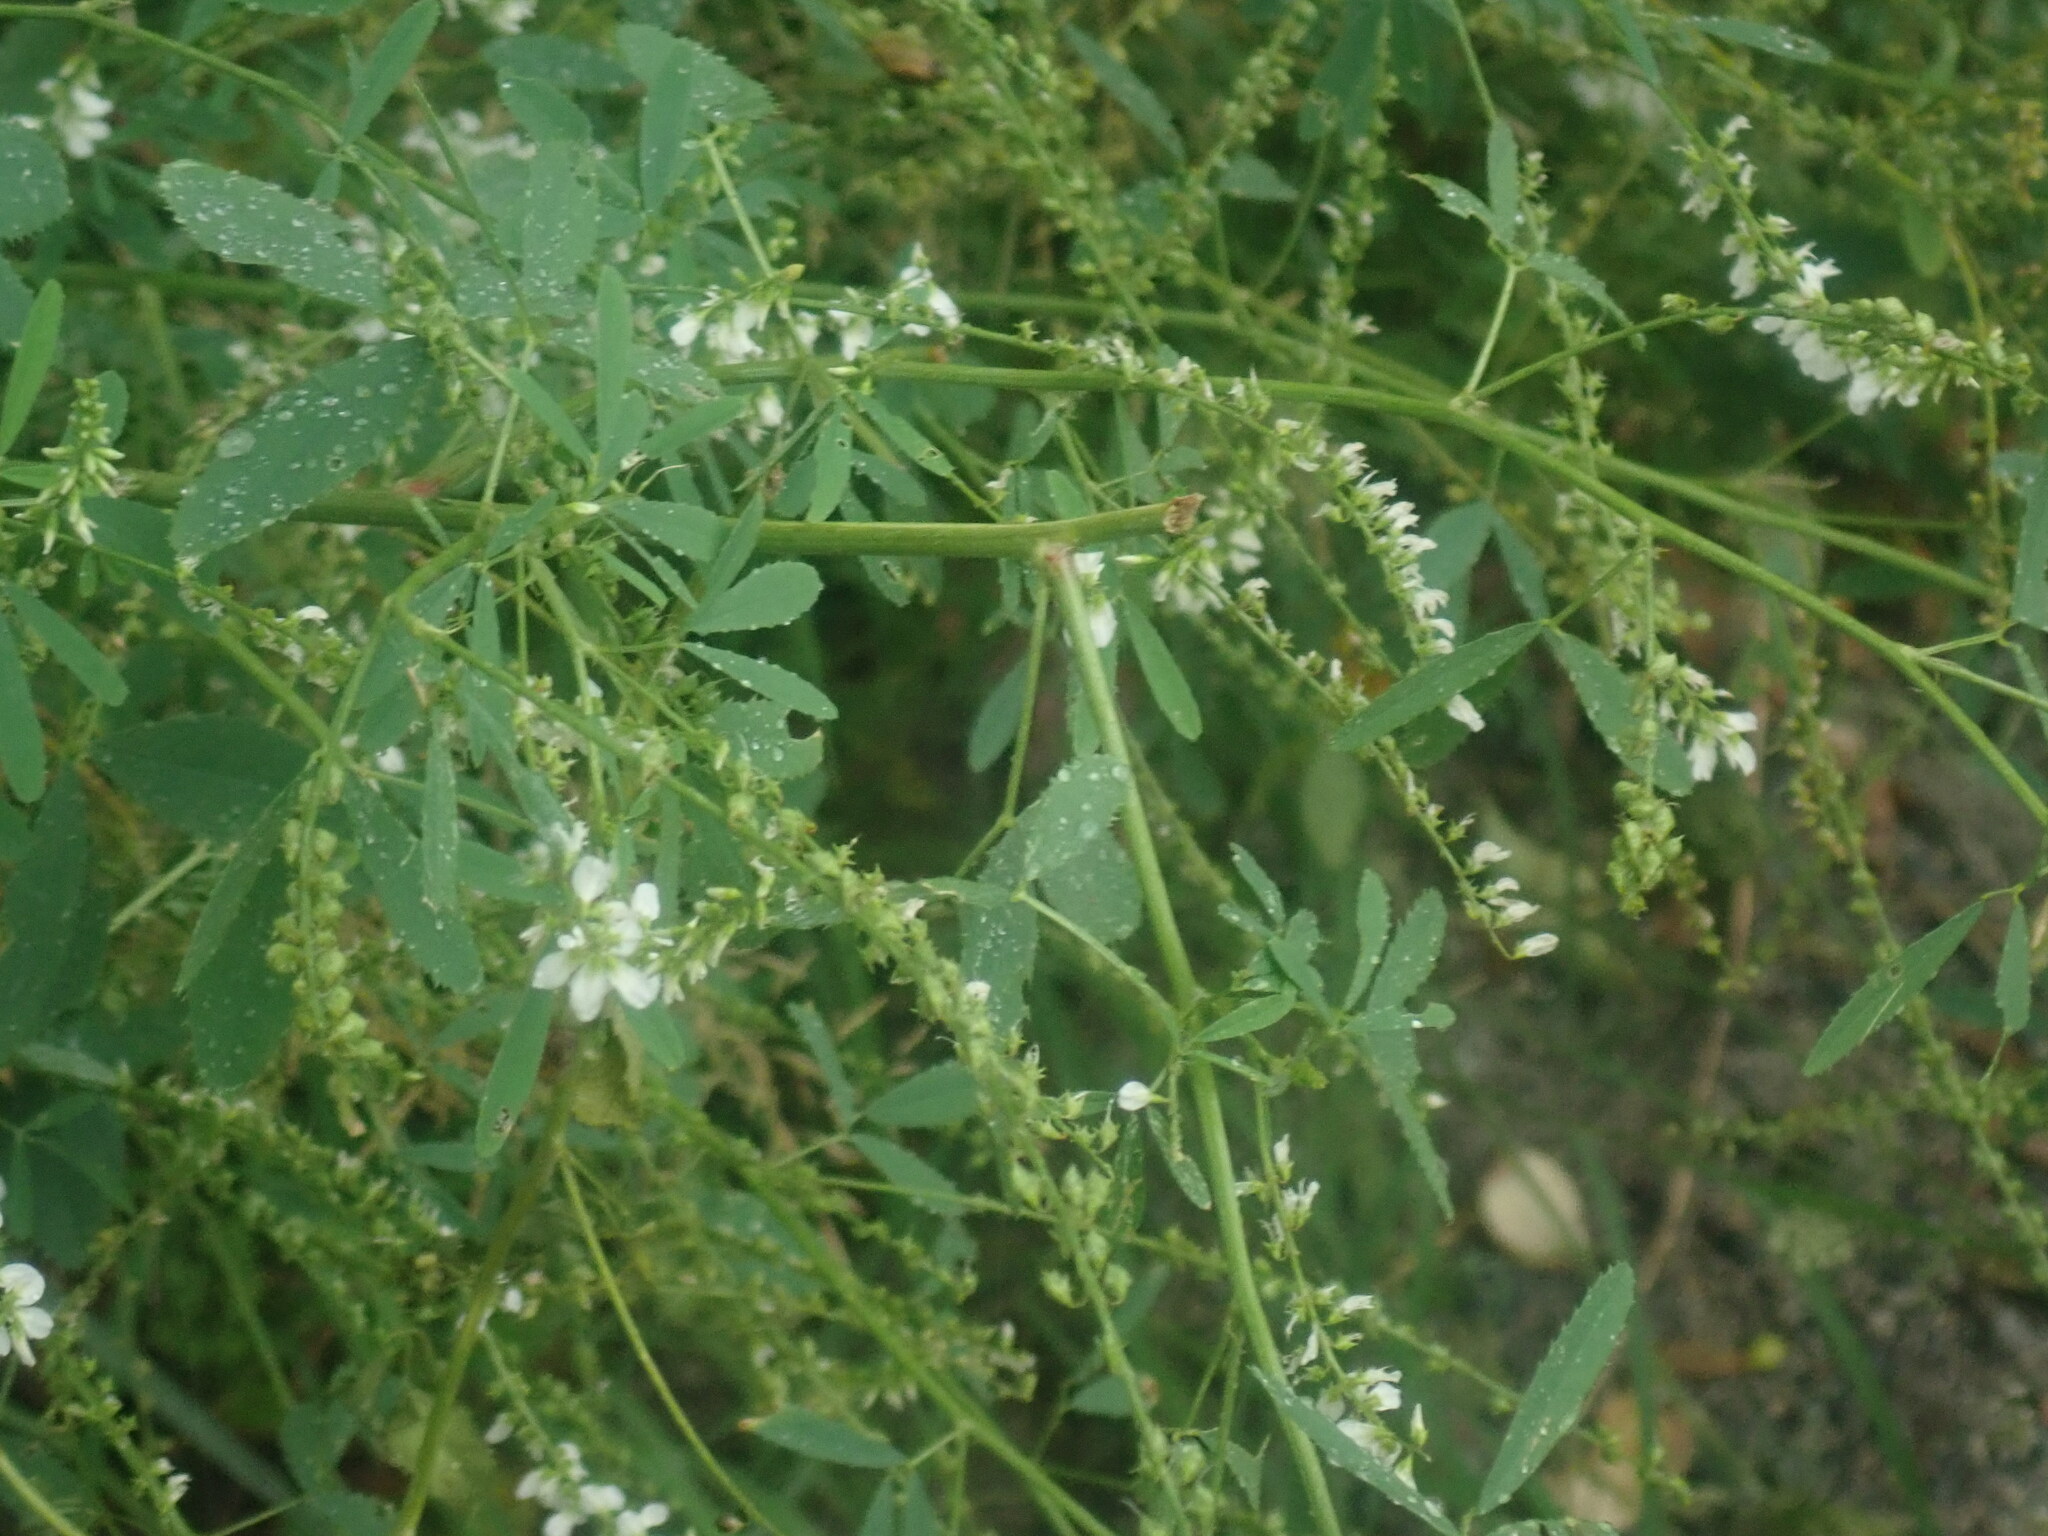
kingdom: Plantae
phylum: Tracheophyta
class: Magnoliopsida
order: Fabales
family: Fabaceae
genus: Melilotus
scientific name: Melilotus albus
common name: White melilot
